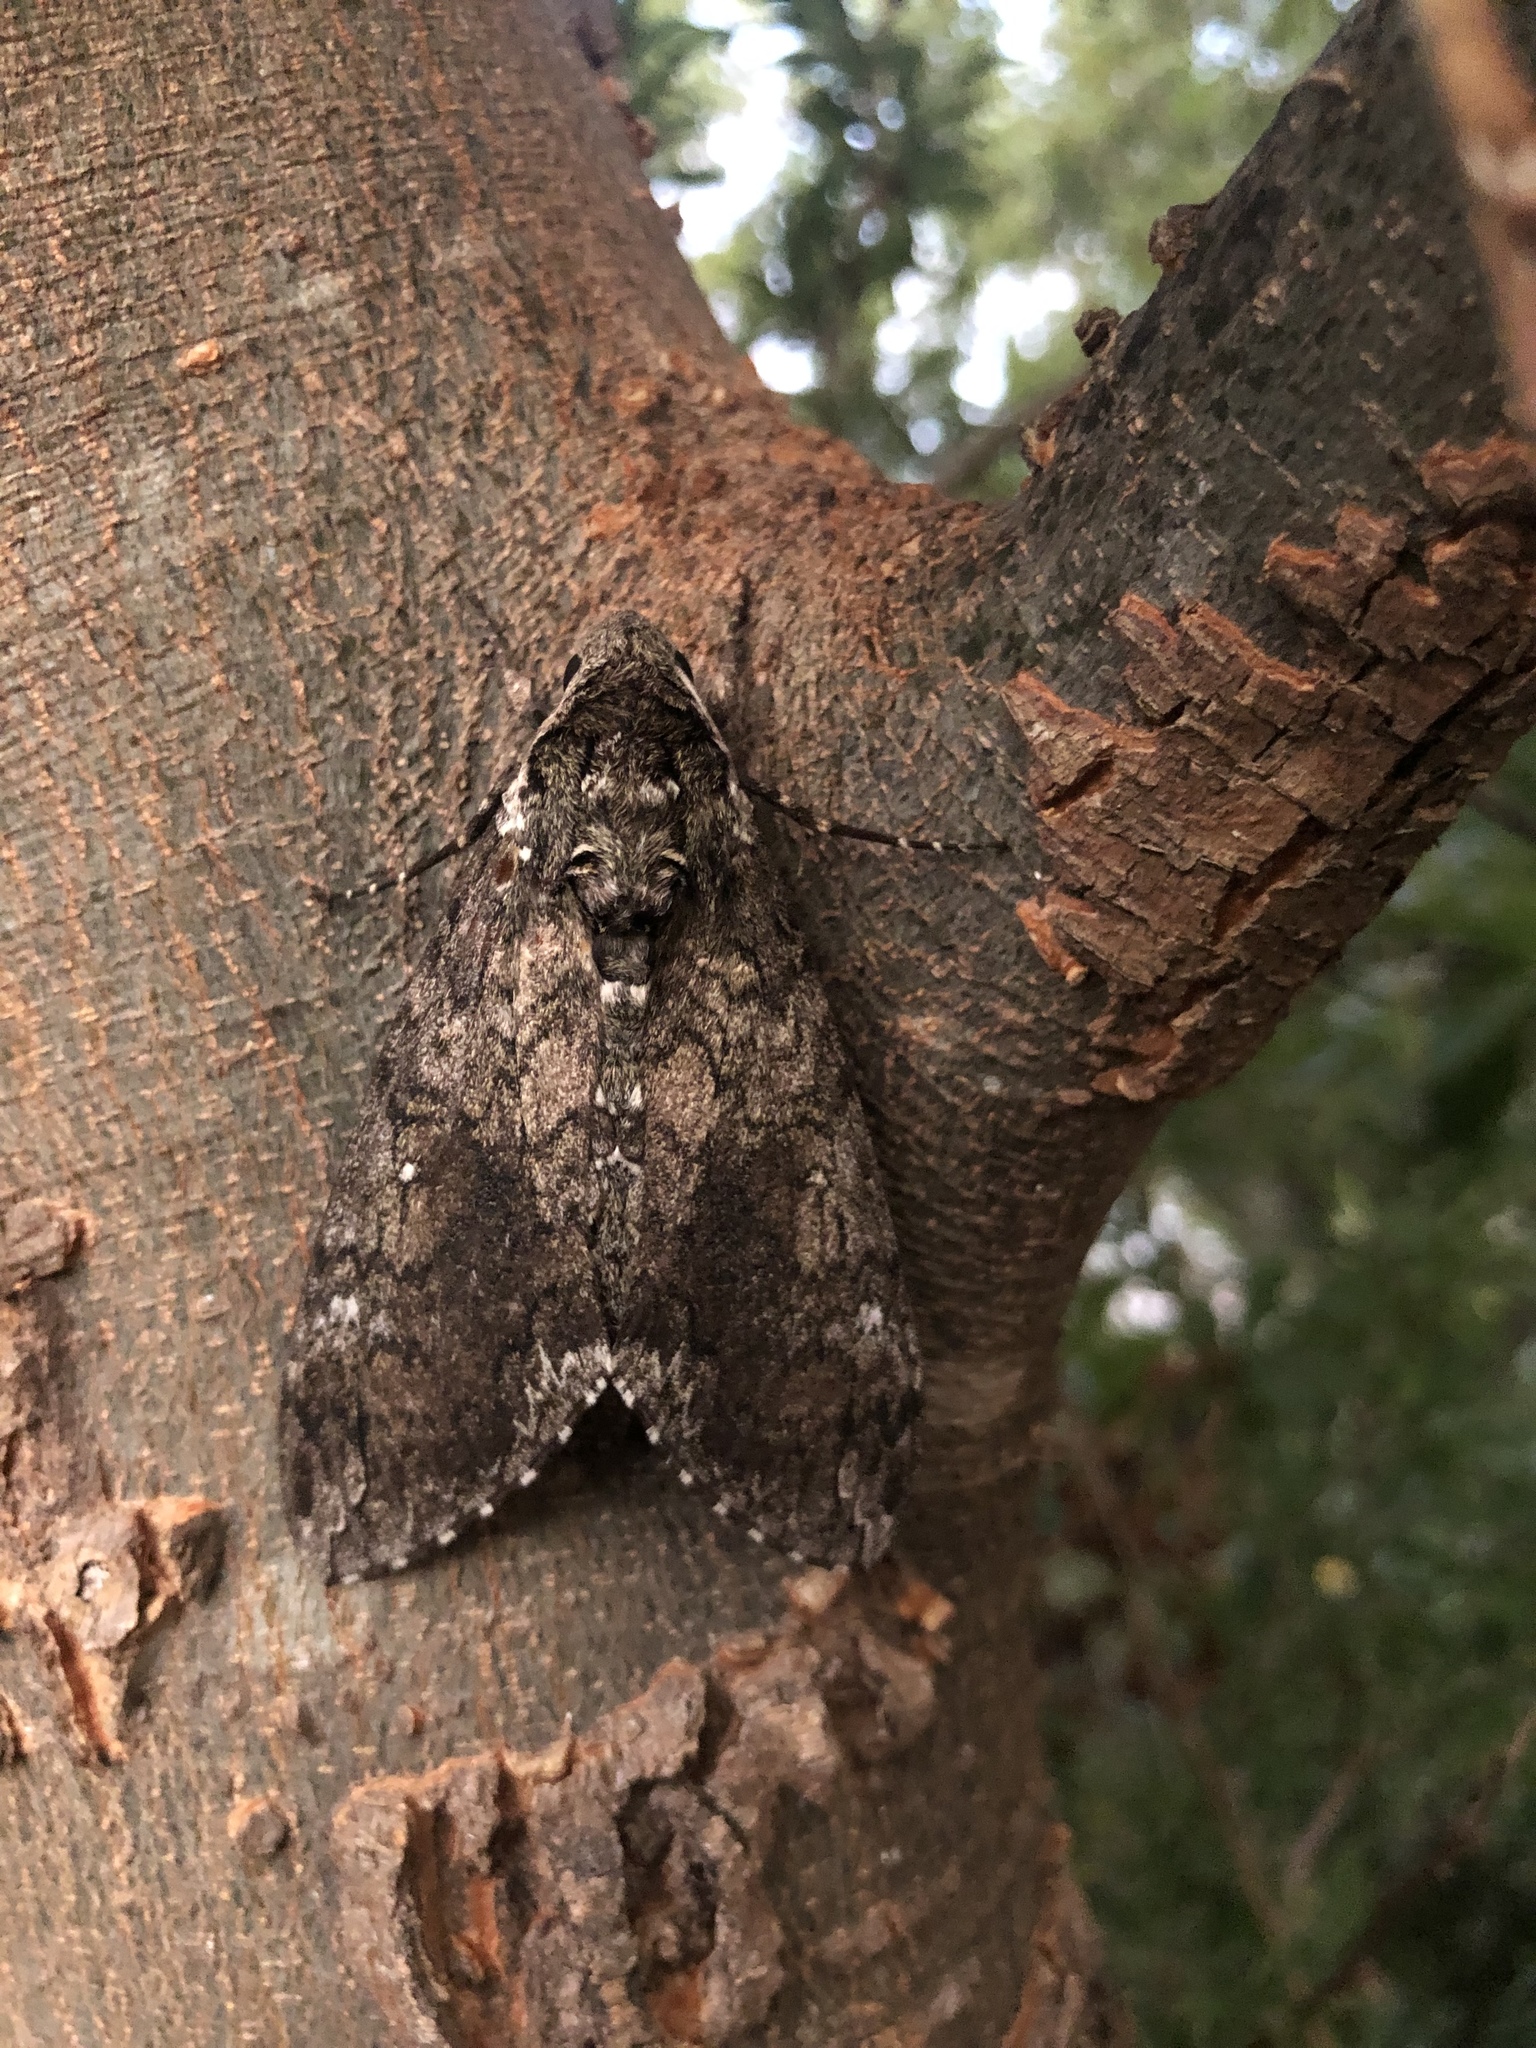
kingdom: Animalia
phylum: Arthropoda
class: Insecta
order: Lepidoptera
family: Sphingidae
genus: Manduca
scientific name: Manduca sexta
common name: Carolina sphinx
